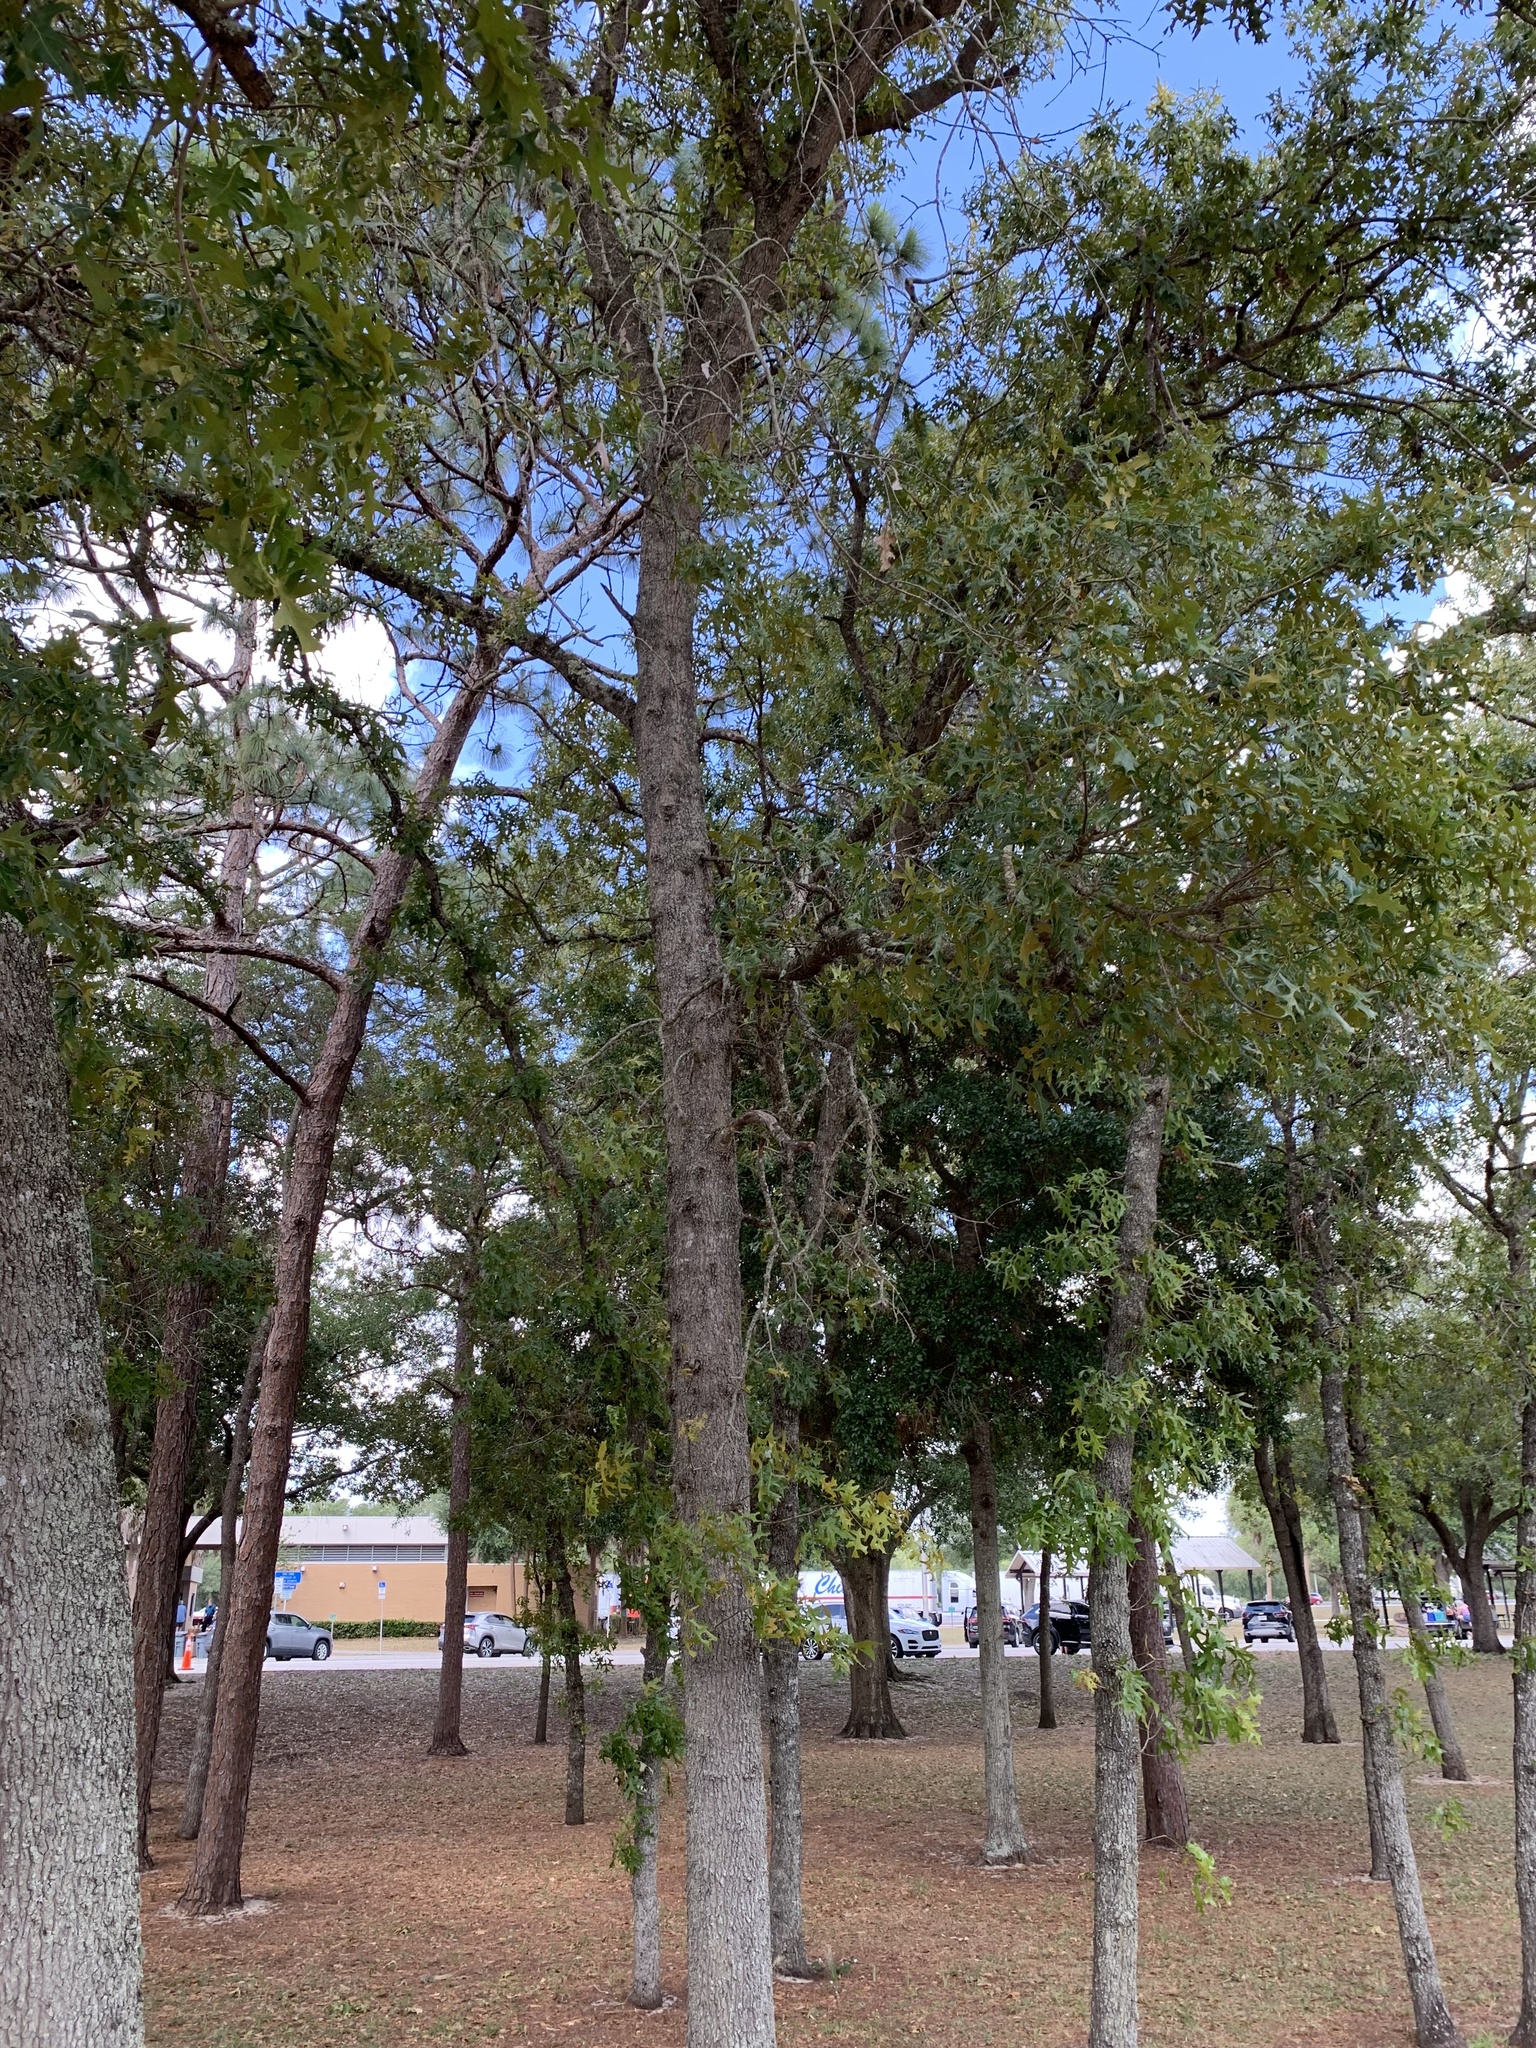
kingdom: Plantae
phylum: Tracheophyta
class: Magnoliopsida
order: Fagales
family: Fagaceae
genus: Quercus
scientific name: Quercus laevis
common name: Turkey oak
